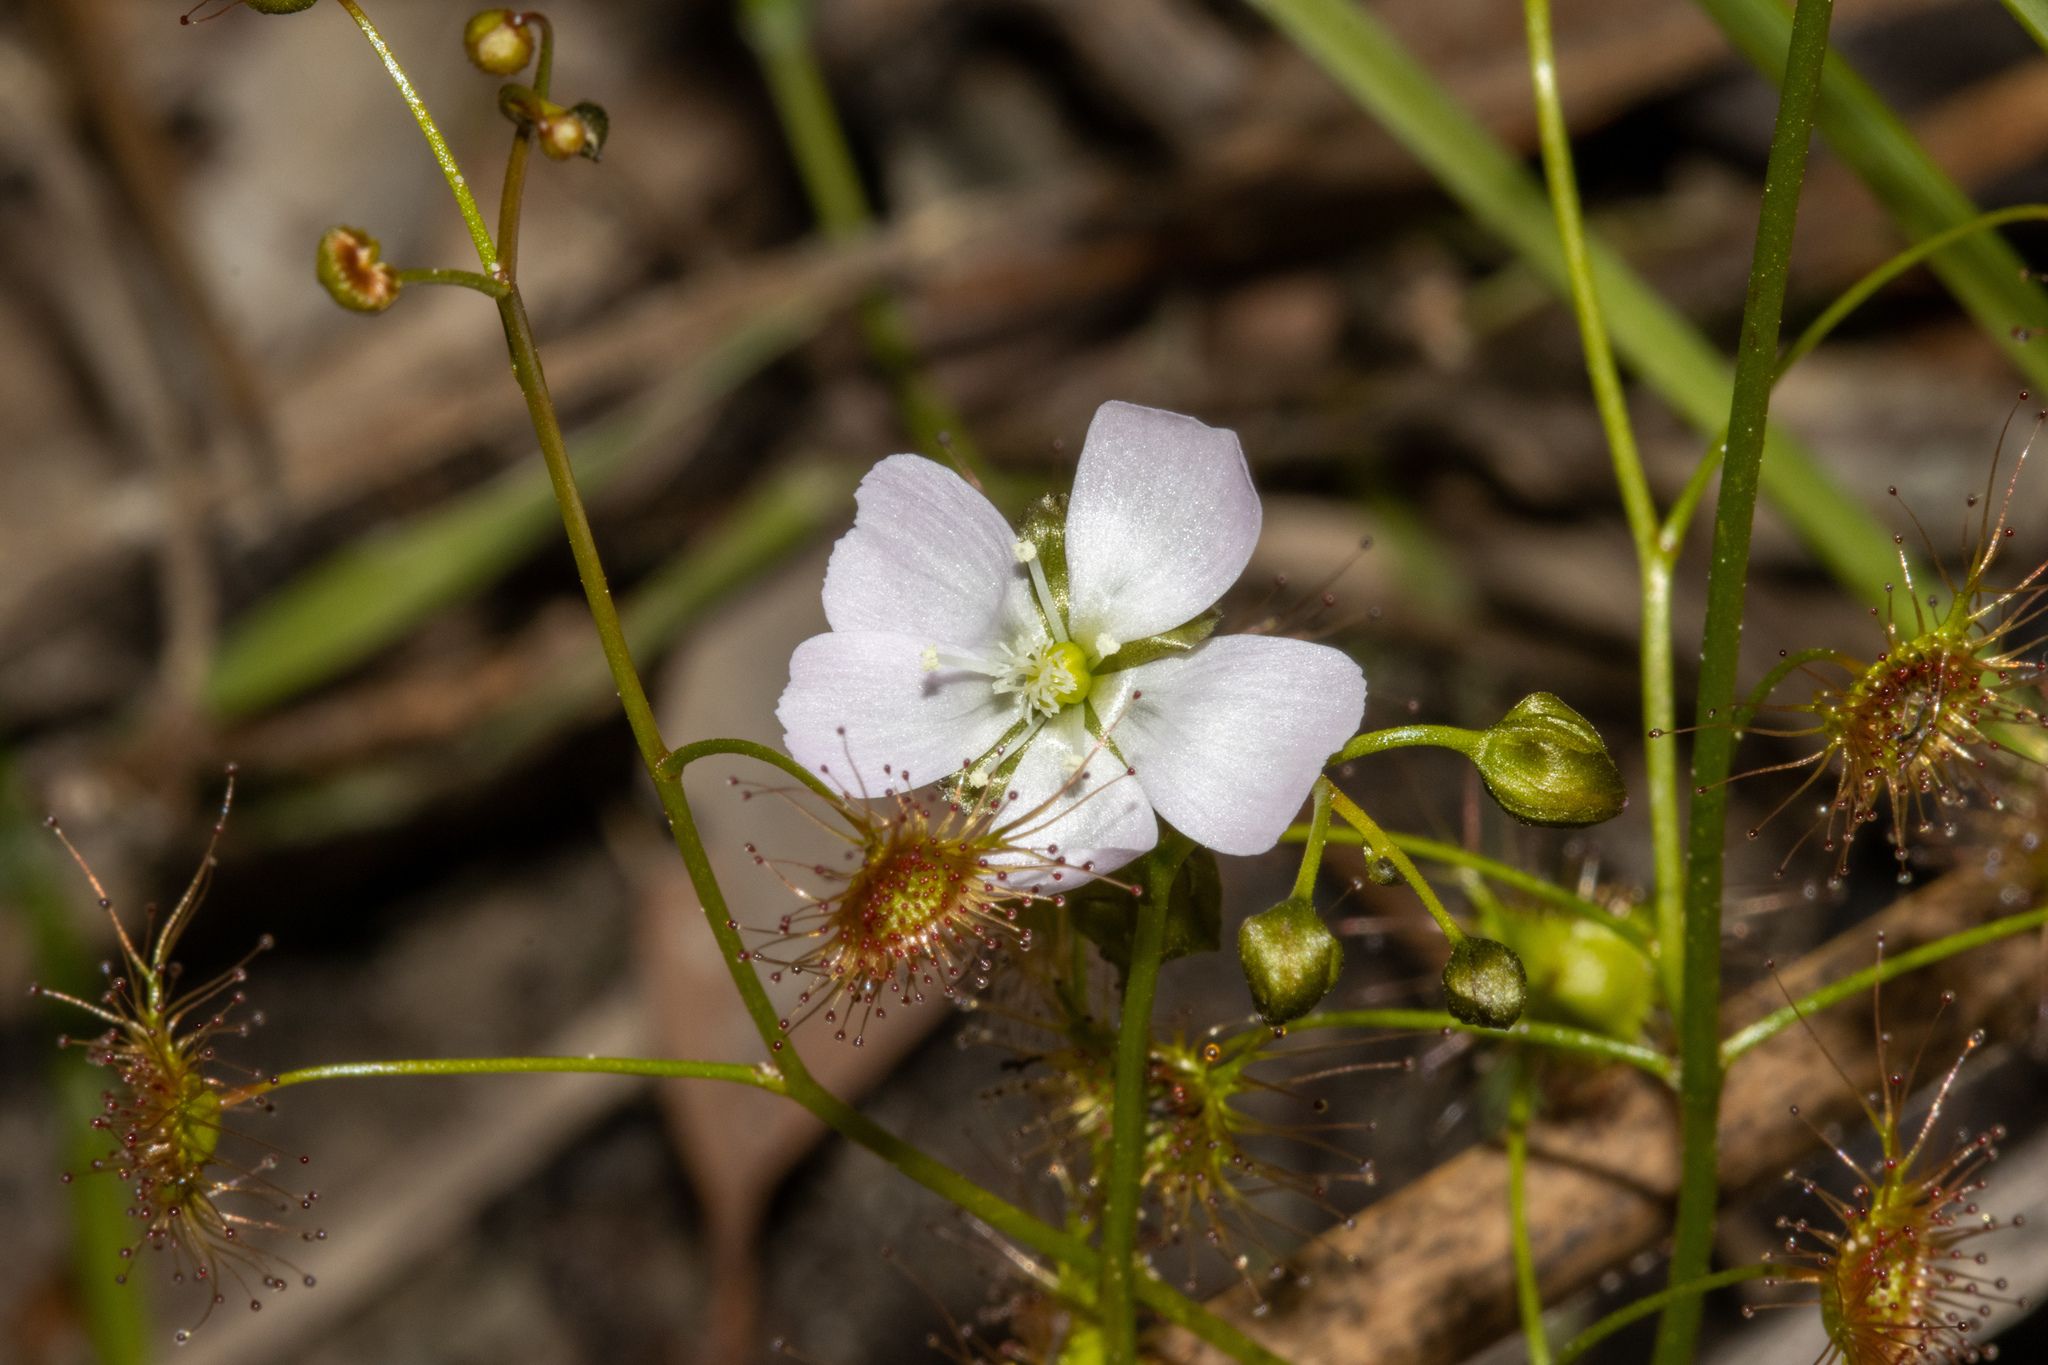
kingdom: Plantae
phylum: Tracheophyta
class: Magnoliopsida
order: Caryophyllales
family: Droseraceae
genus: Drosera
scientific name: Drosera peltata
